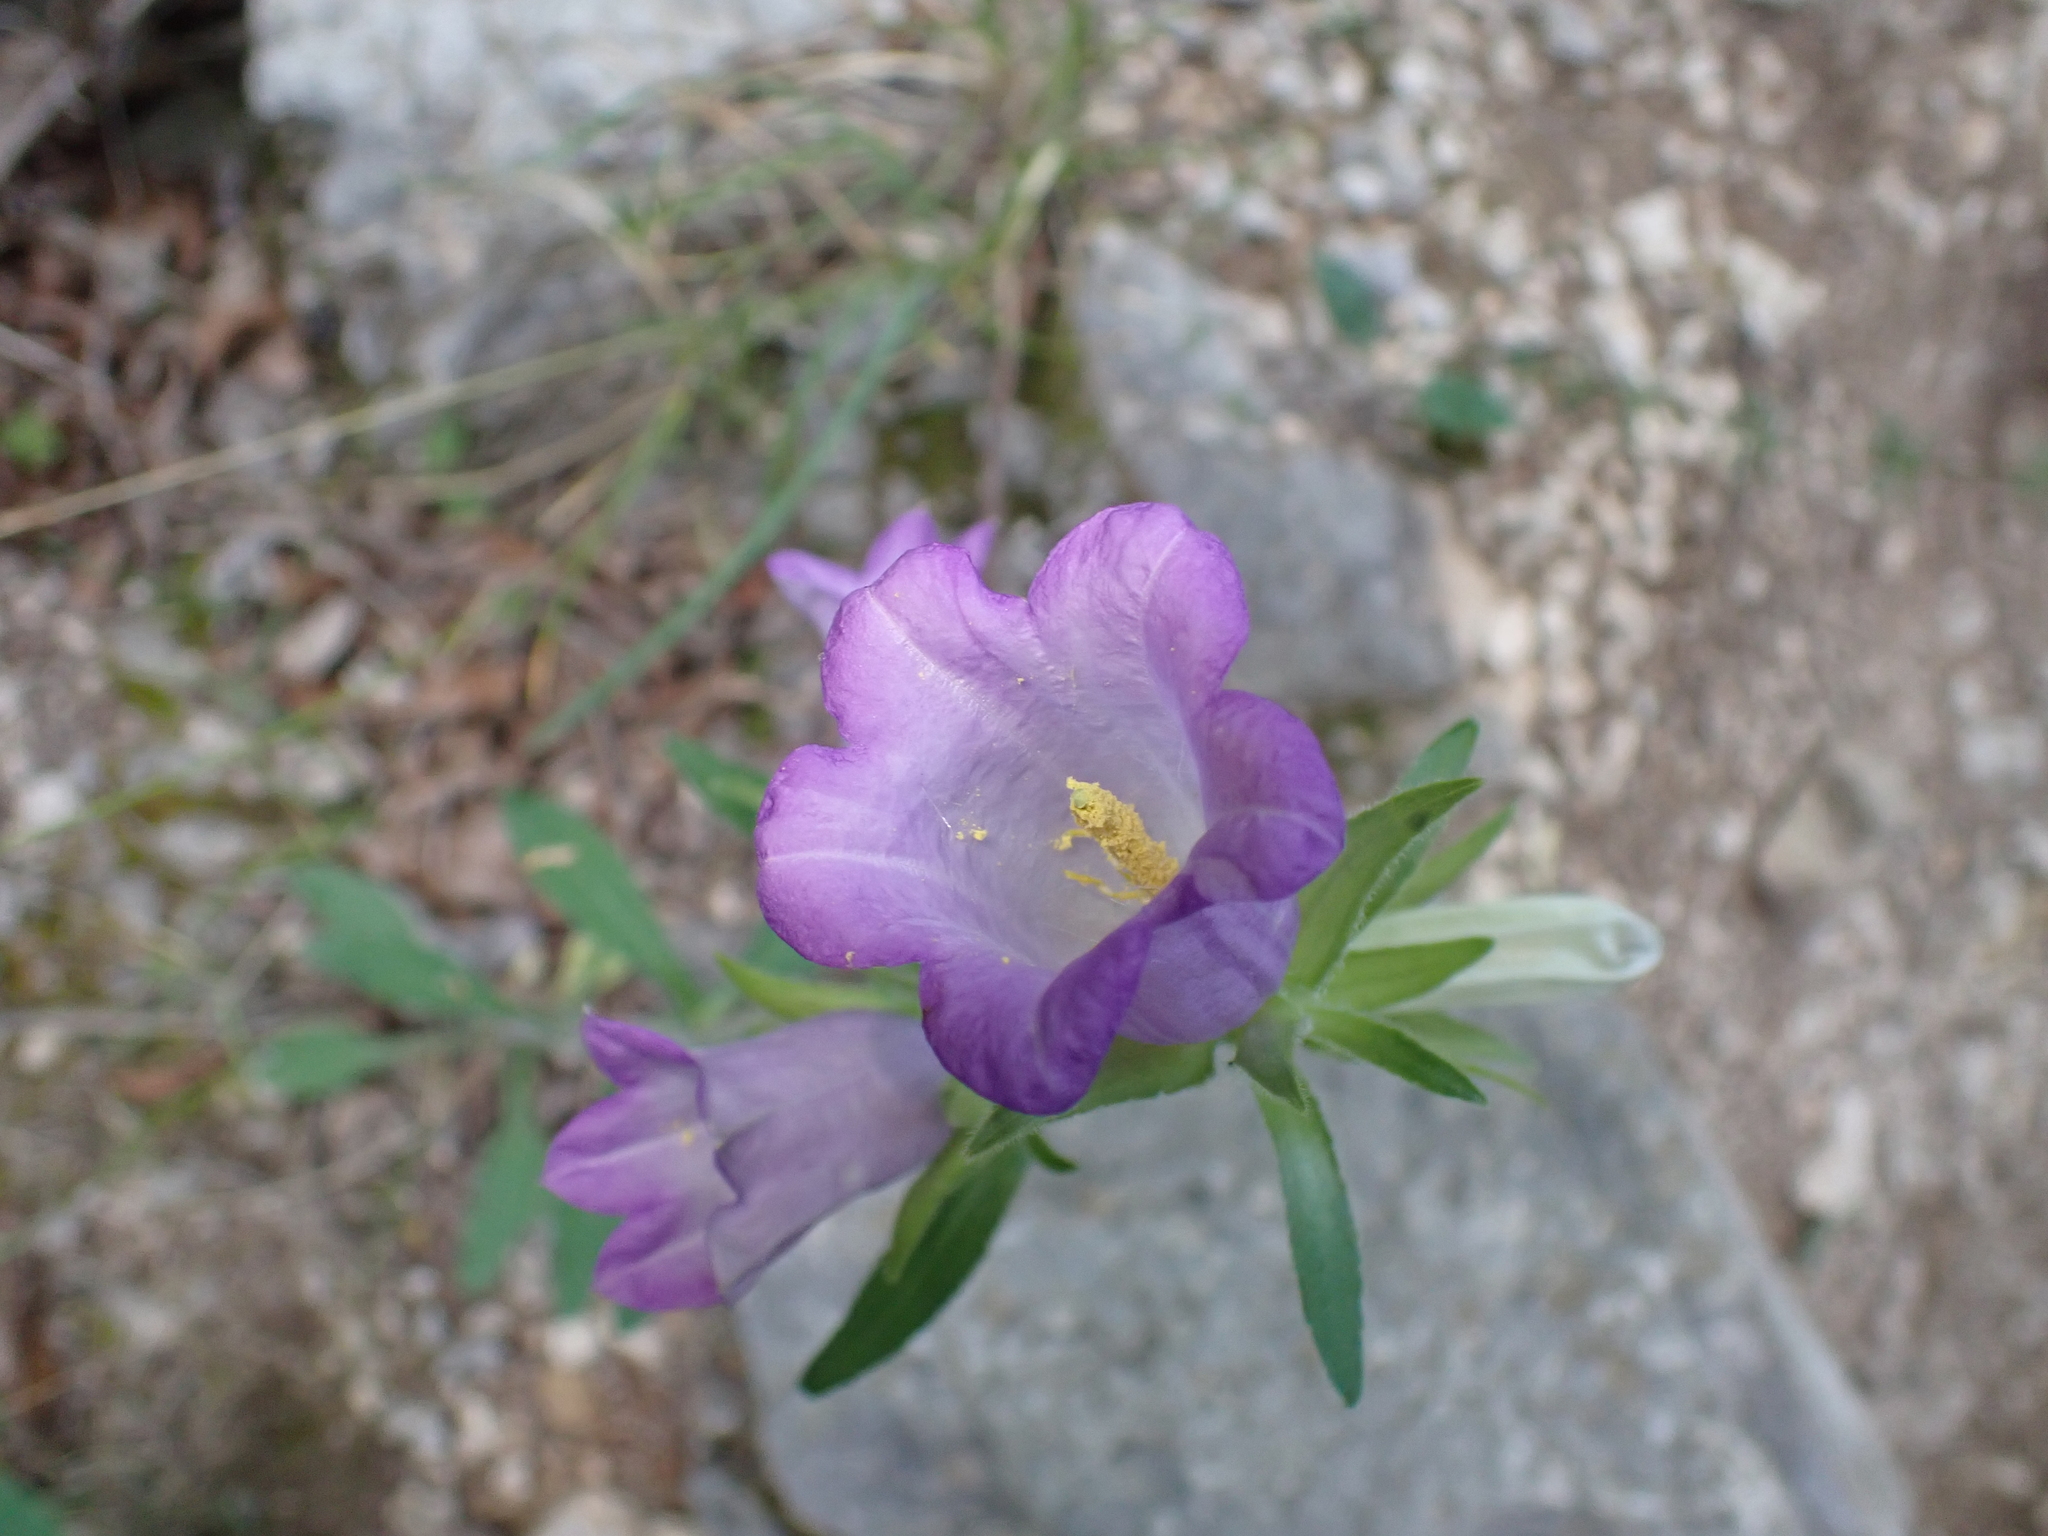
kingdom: Plantae
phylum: Tracheophyta
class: Magnoliopsida
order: Asterales
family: Campanulaceae
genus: Campanula
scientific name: Campanula medium
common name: Canterbury bells
